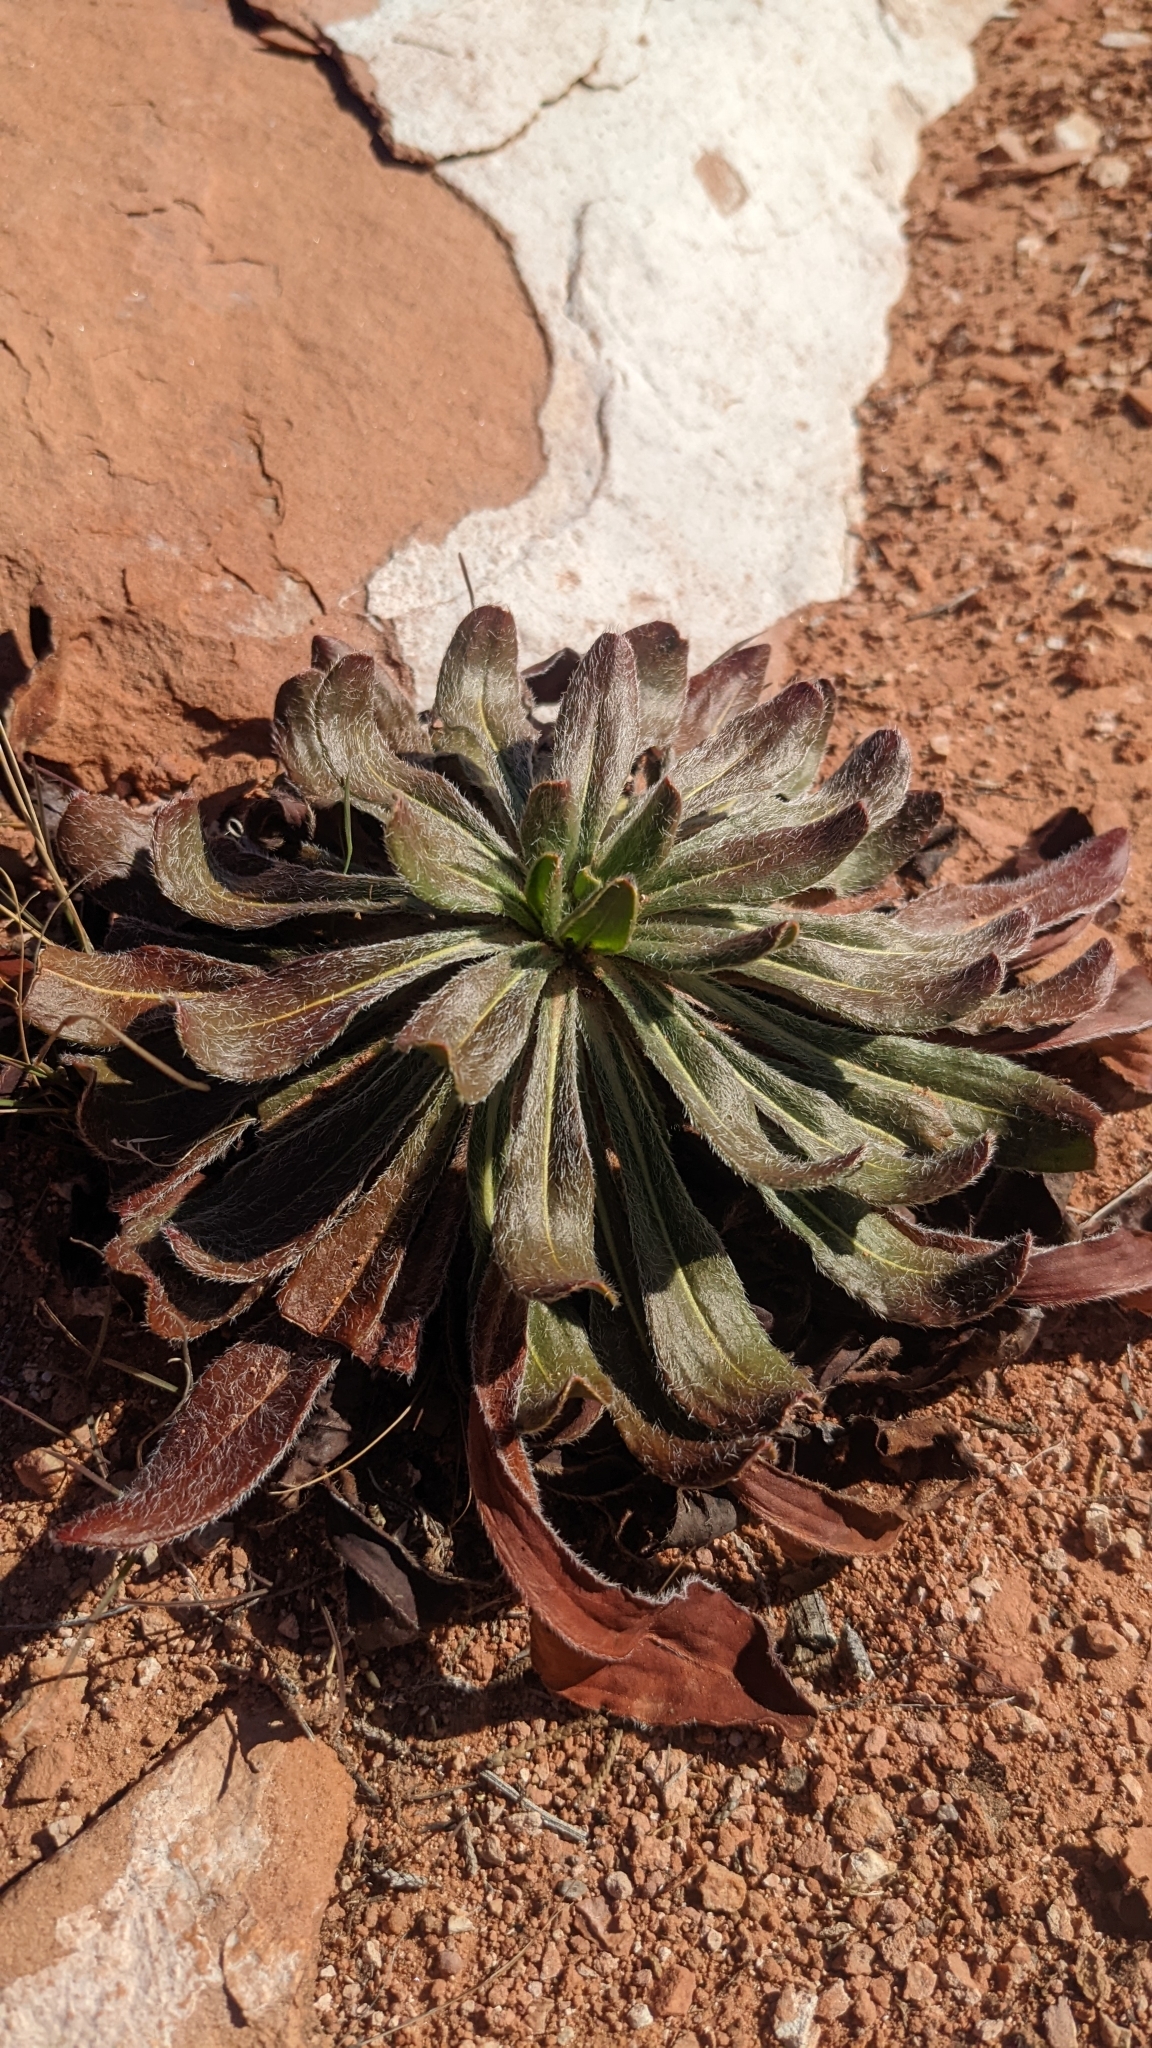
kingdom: Plantae
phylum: Tracheophyta
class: Magnoliopsida
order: Caryophyllales
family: Polygonaceae
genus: Eriogonum
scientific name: Eriogonum alatum
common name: Winged eriogonum
